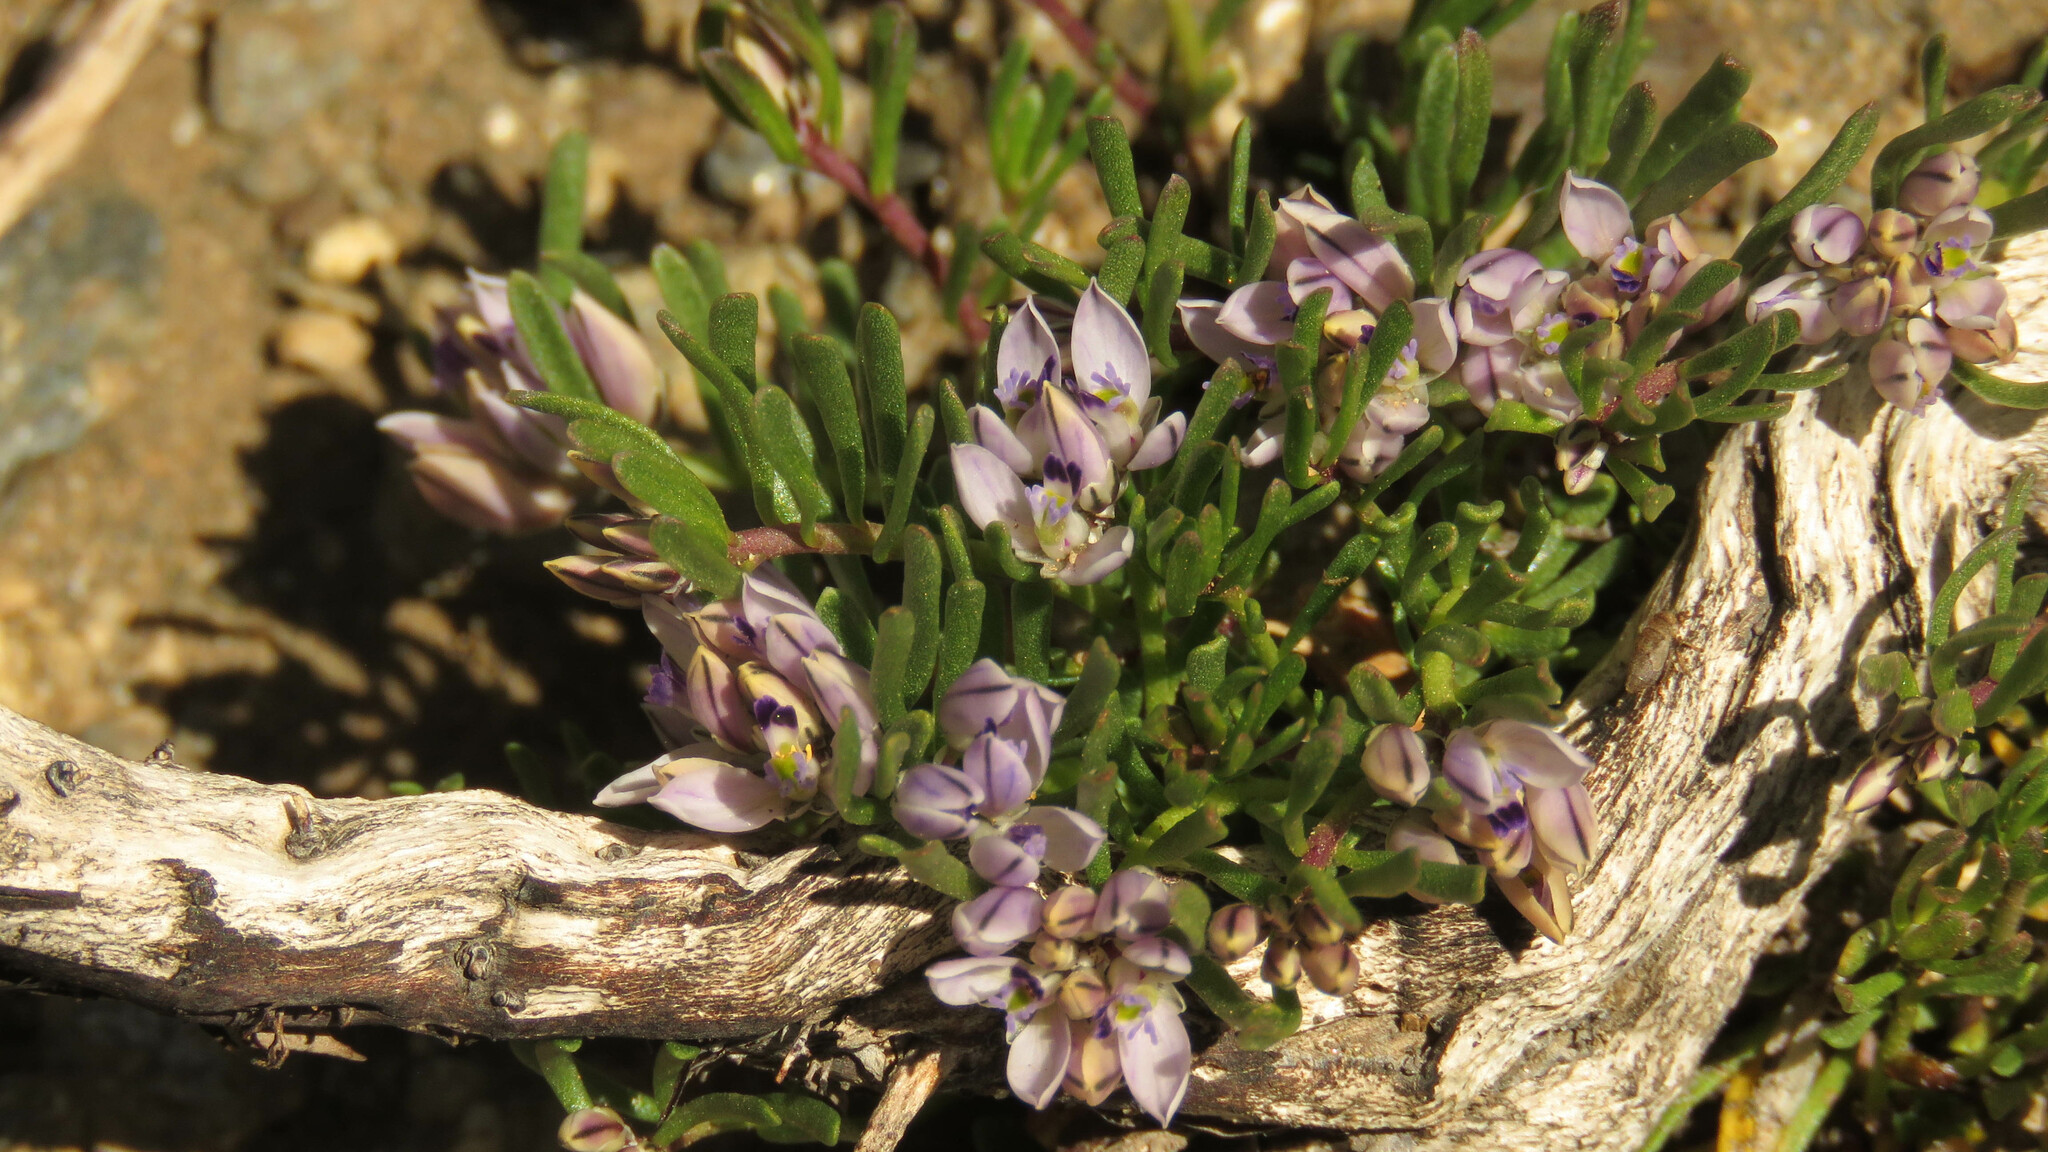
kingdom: Plantae
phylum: Tracheophyta
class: Magnoliopsida
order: Fabales
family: Polygalaceae
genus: Polygala
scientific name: Polygala salasiana
